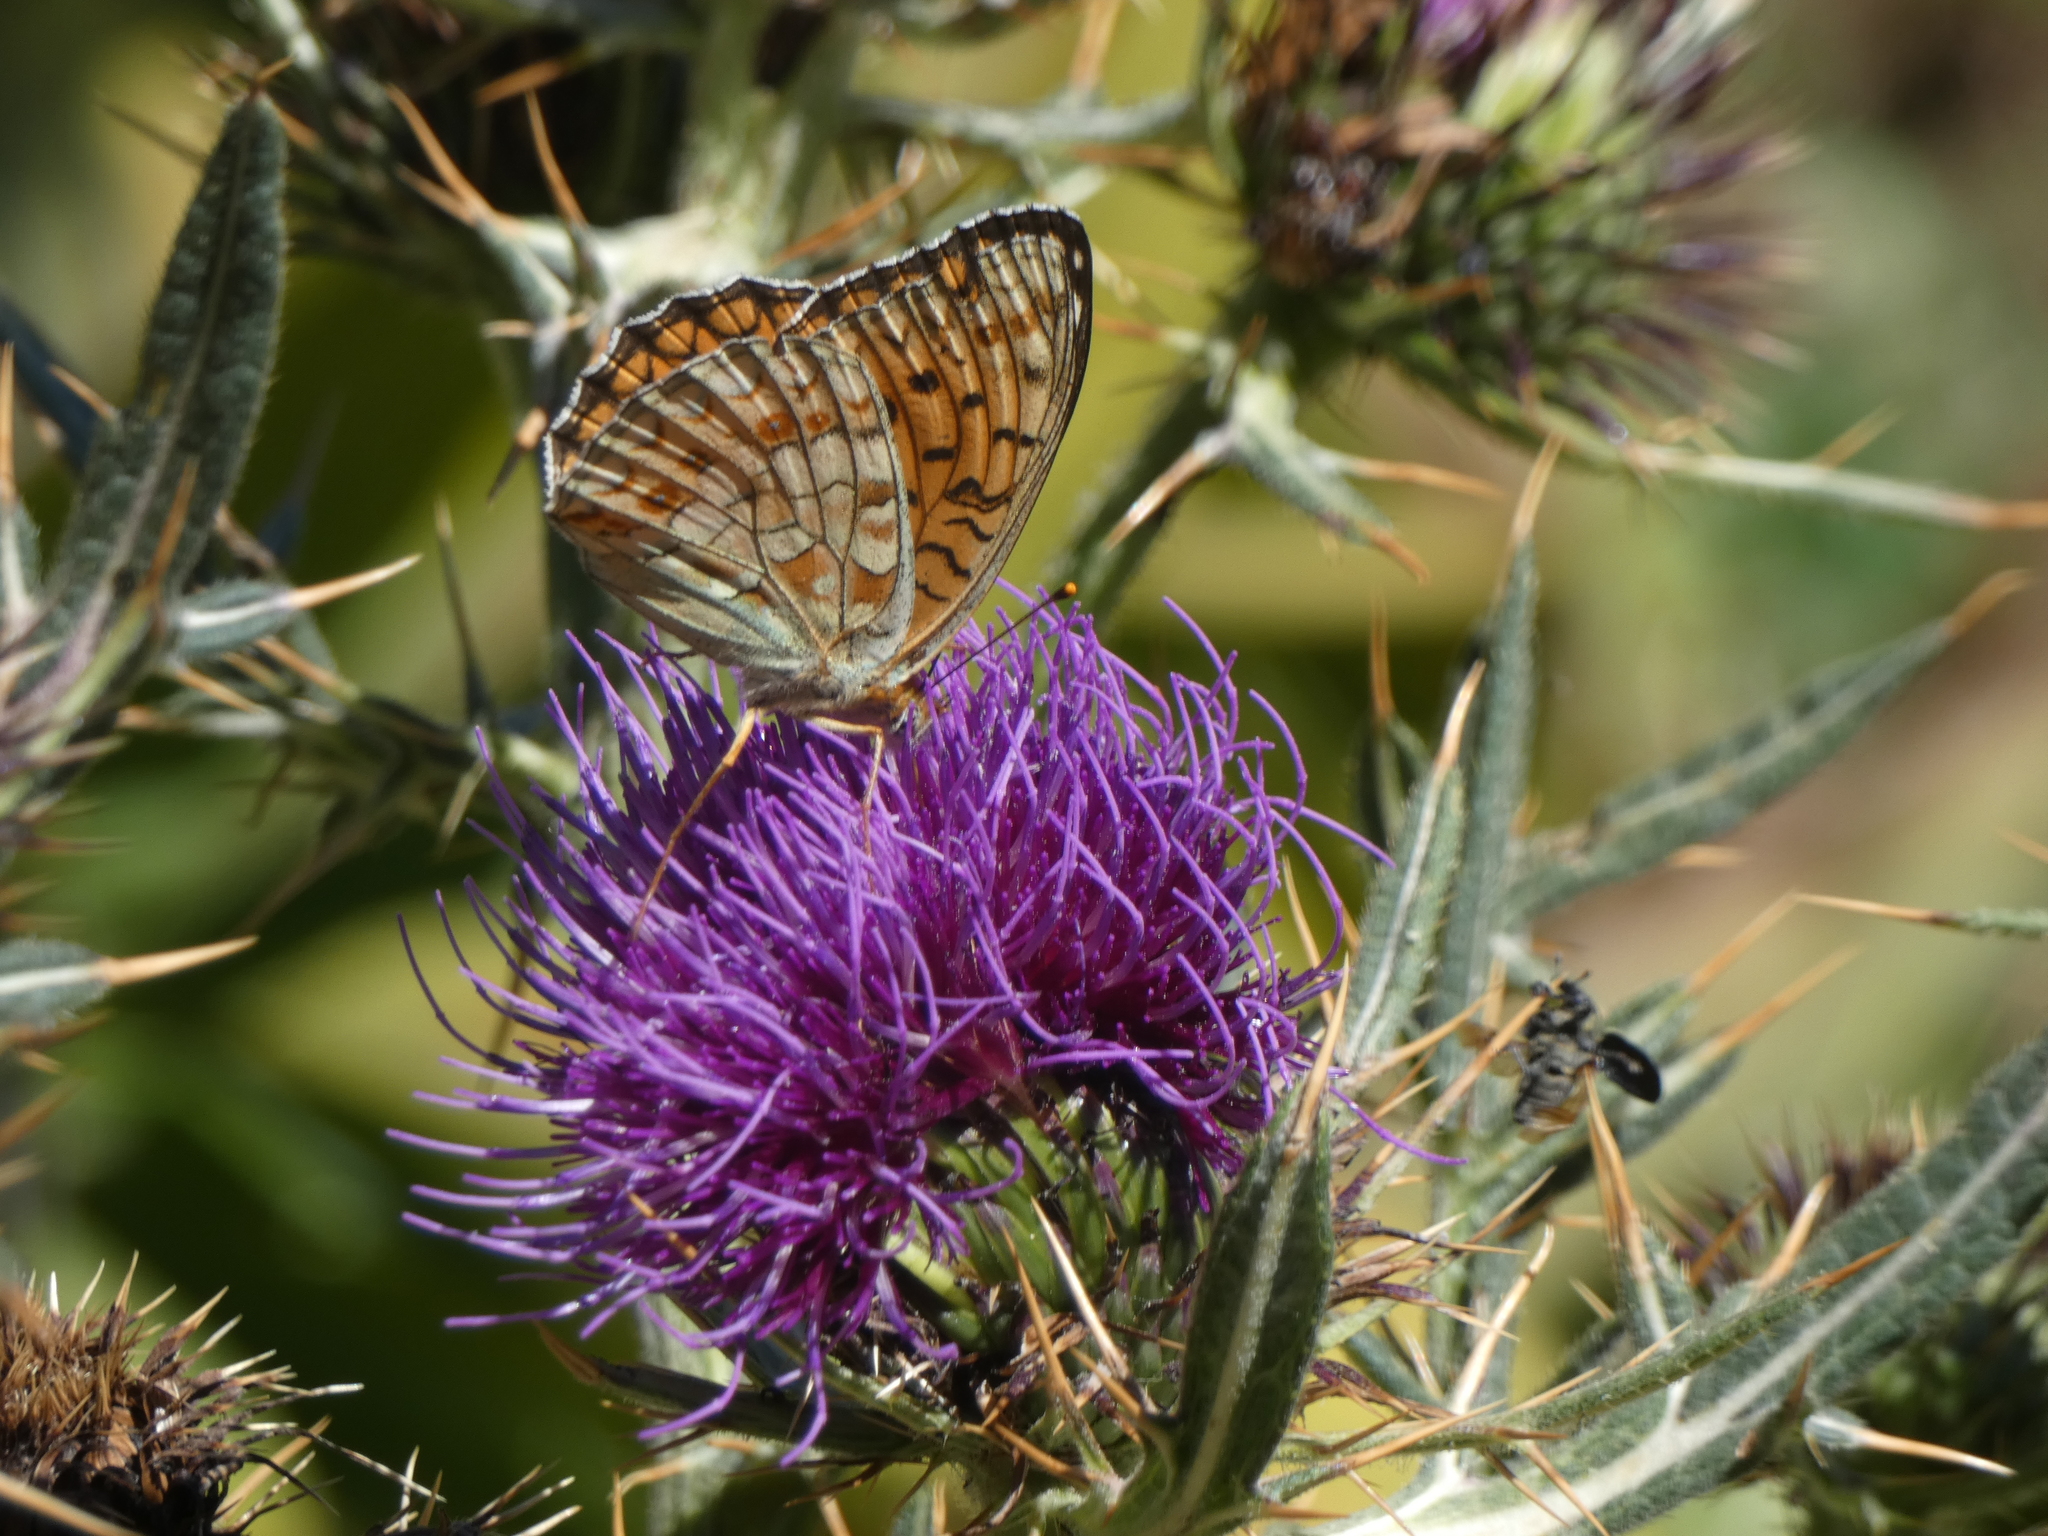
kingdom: Animalia
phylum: Arthropoda
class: Insecta
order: Lepidoptera
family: Nymphalidae
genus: Fabriciana
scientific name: Fabriciana niobe
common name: Niobe fritillary
